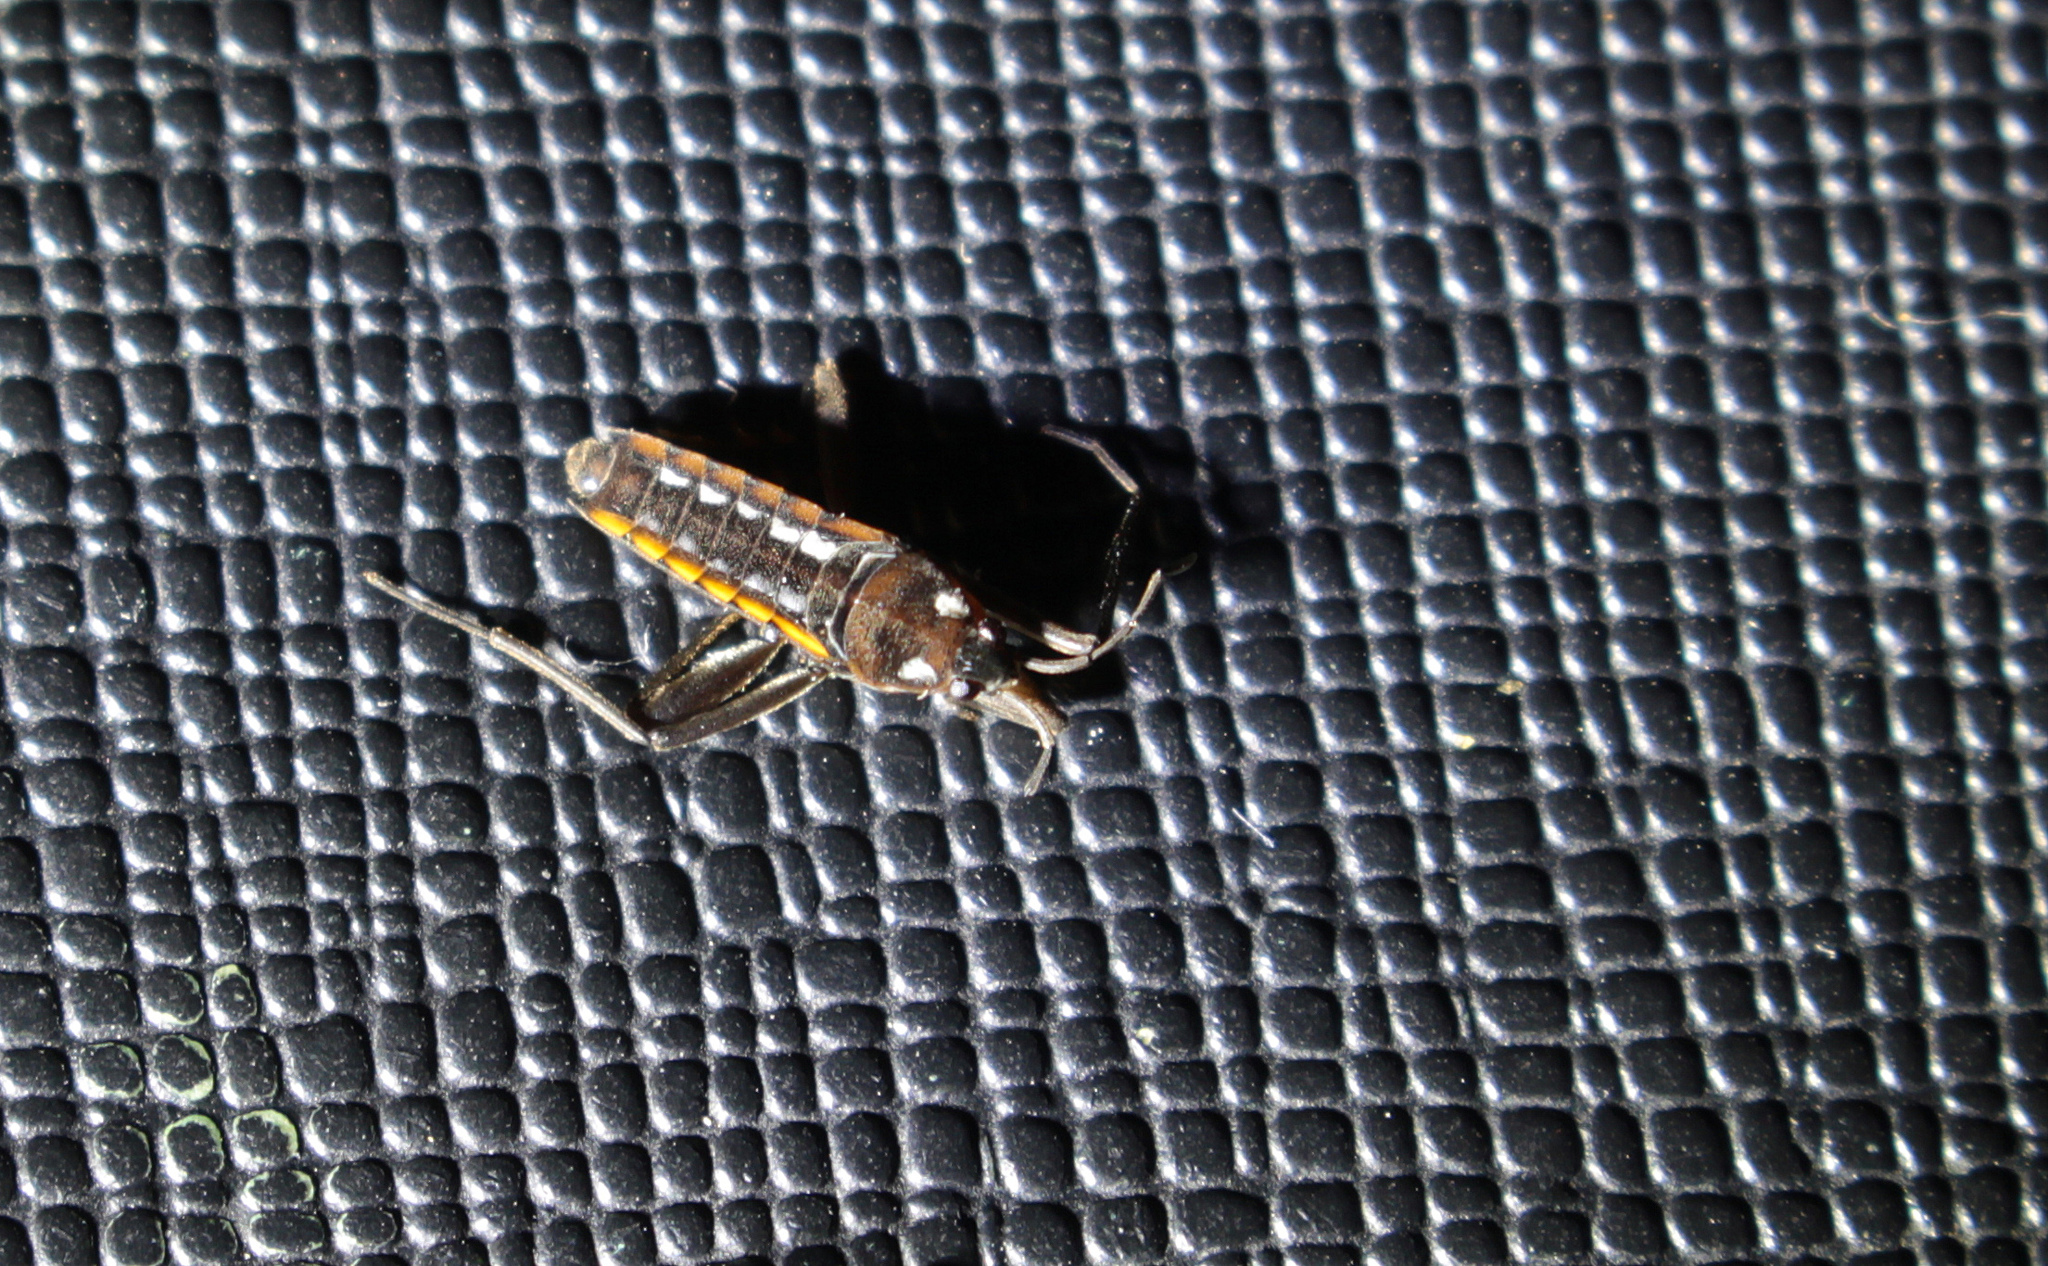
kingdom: Animalia
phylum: Arthropoda
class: Insecta
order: Hemiptera
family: Veliidae
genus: Velia
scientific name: Velia caprai
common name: Water cricket
